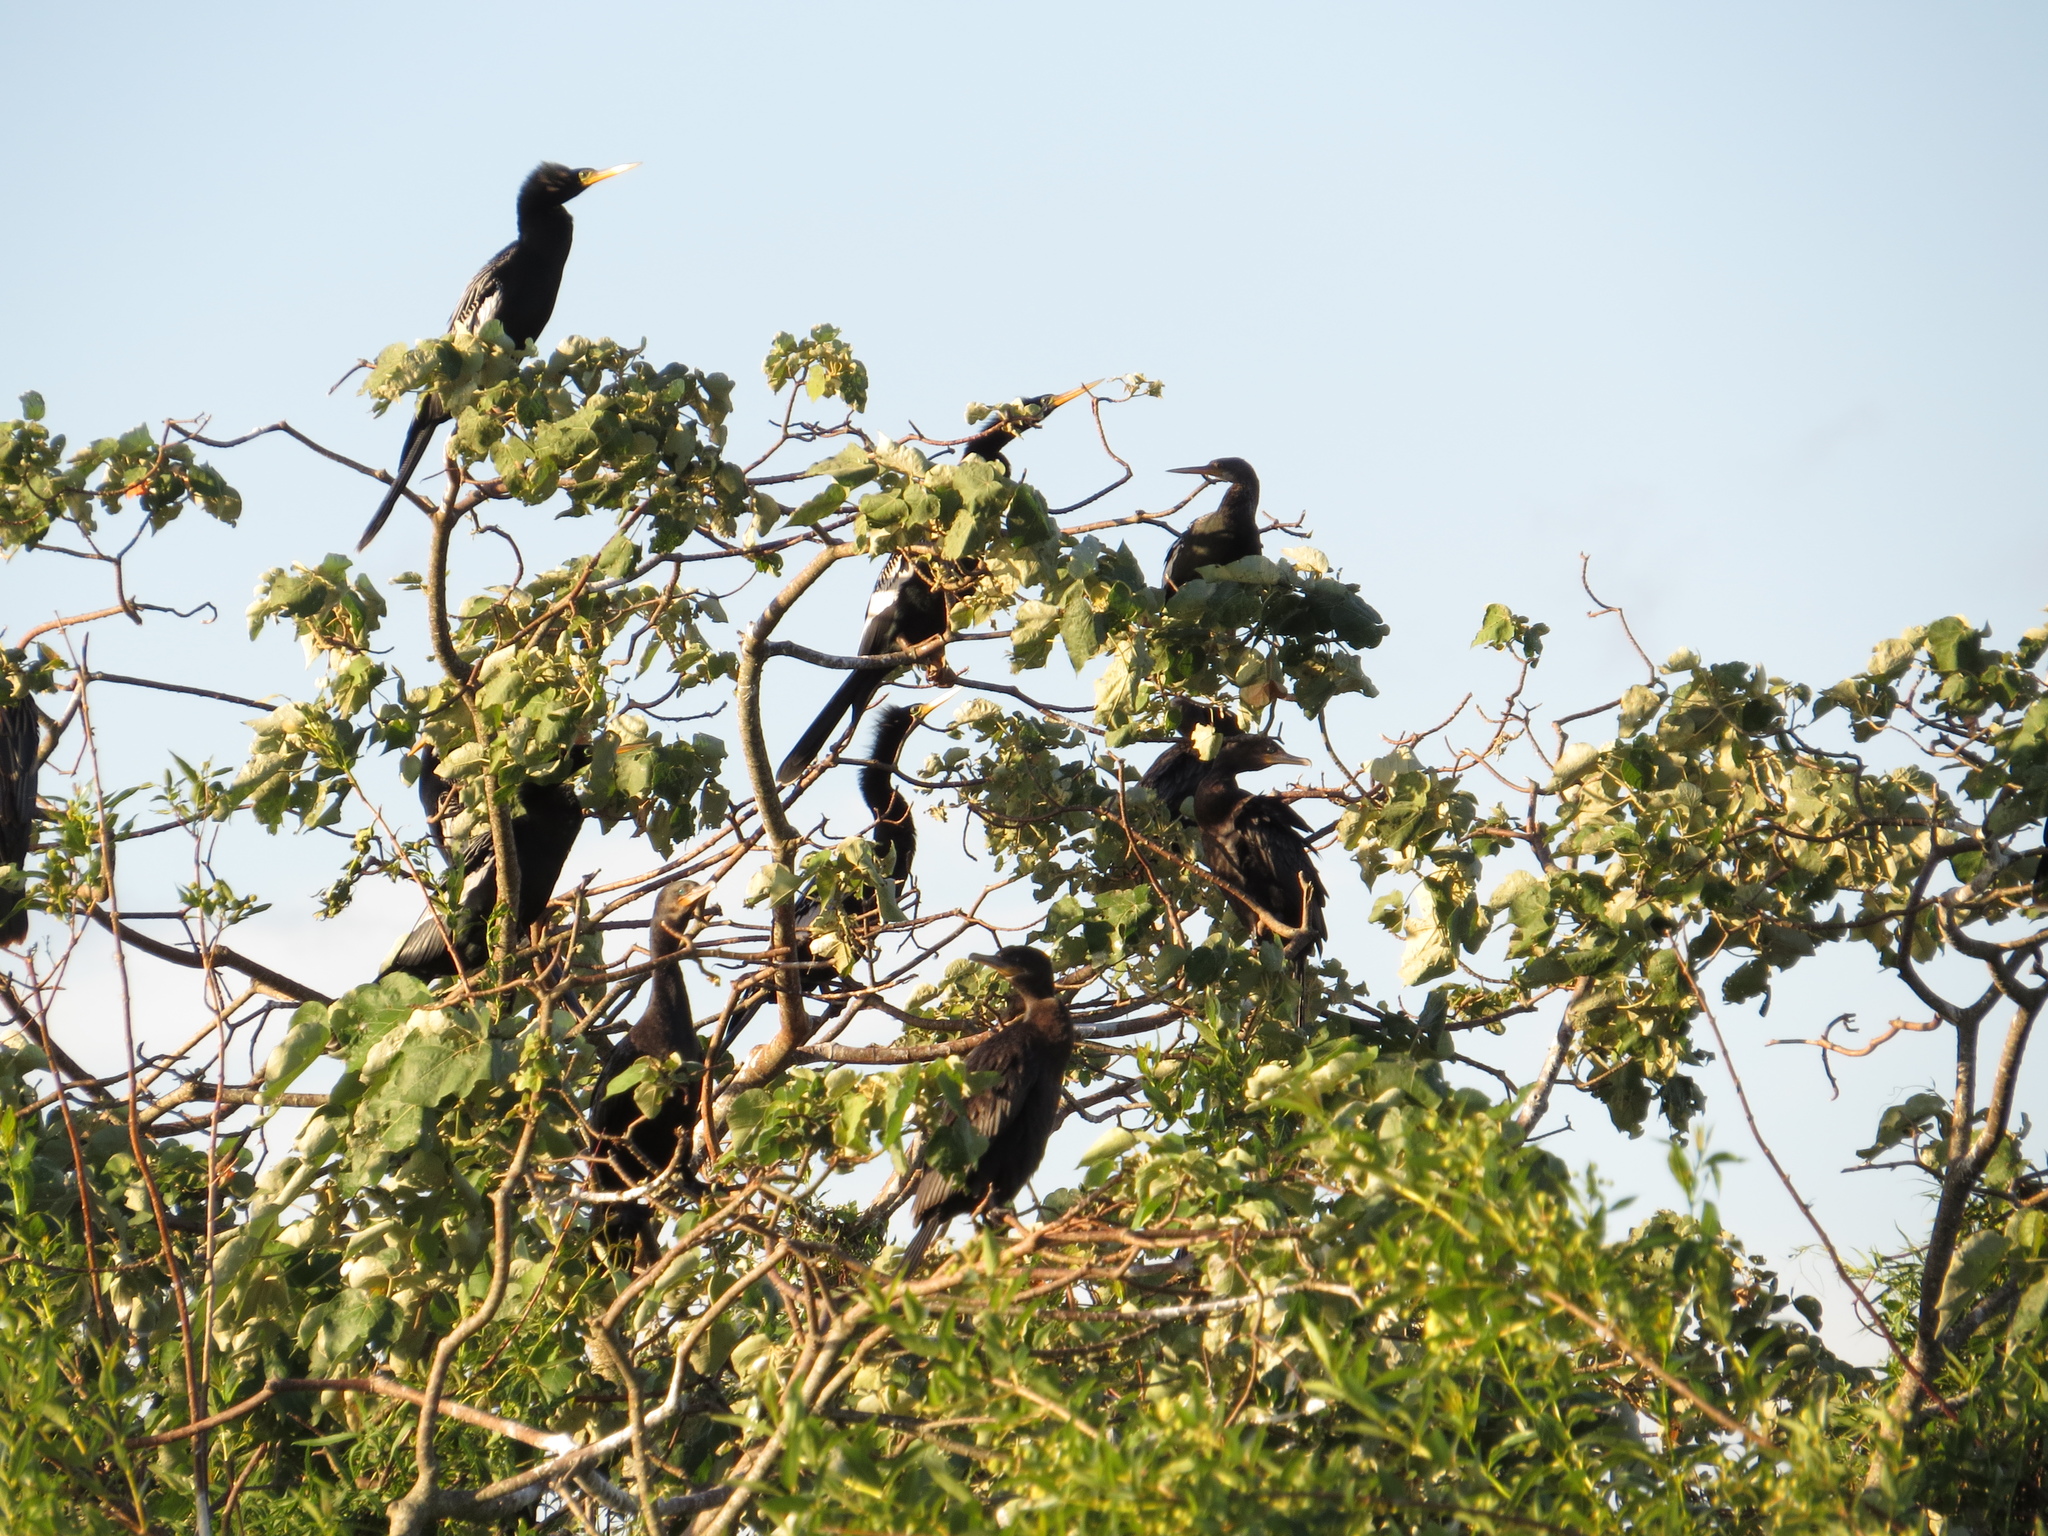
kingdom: Animalia
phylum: Chordata
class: Aves
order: Suliformes
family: Phalacrocoracidae
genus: Phalacrocorax
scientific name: Phalacrocorax brasilianus
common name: Neotropic cormorant
